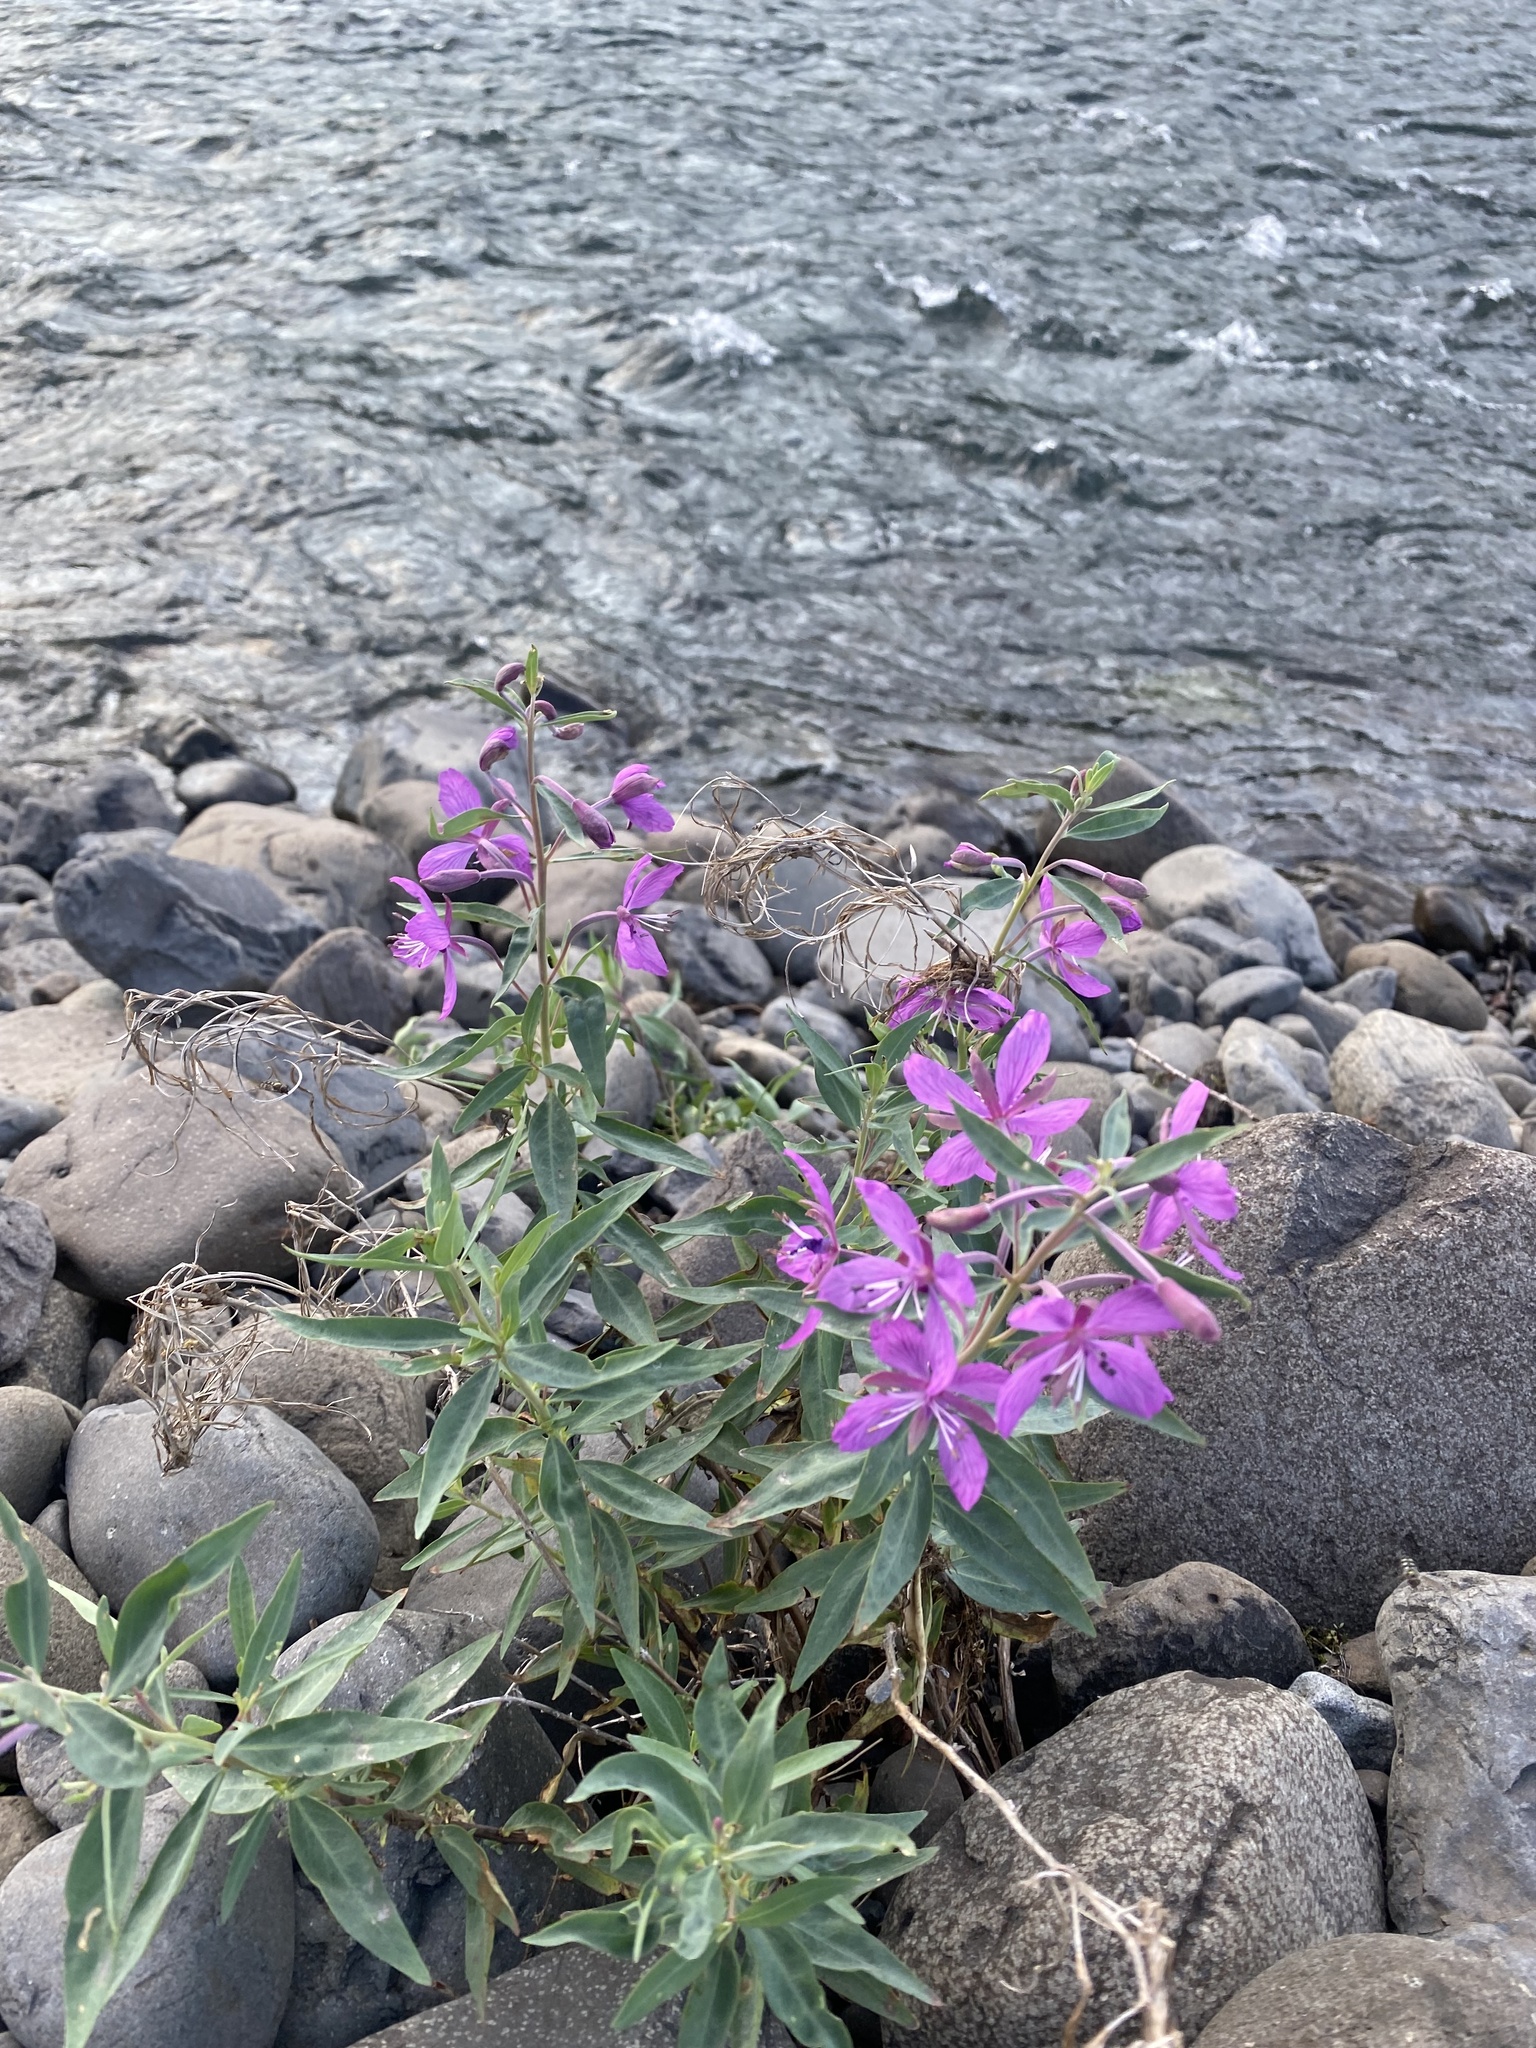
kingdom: Plantae
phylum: Tracheophyta
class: Magnoliopsida
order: Myrtales
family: Onagraceae
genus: Chamaenerion
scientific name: Chamaenerion latifolium
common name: Dwarf fireweed
